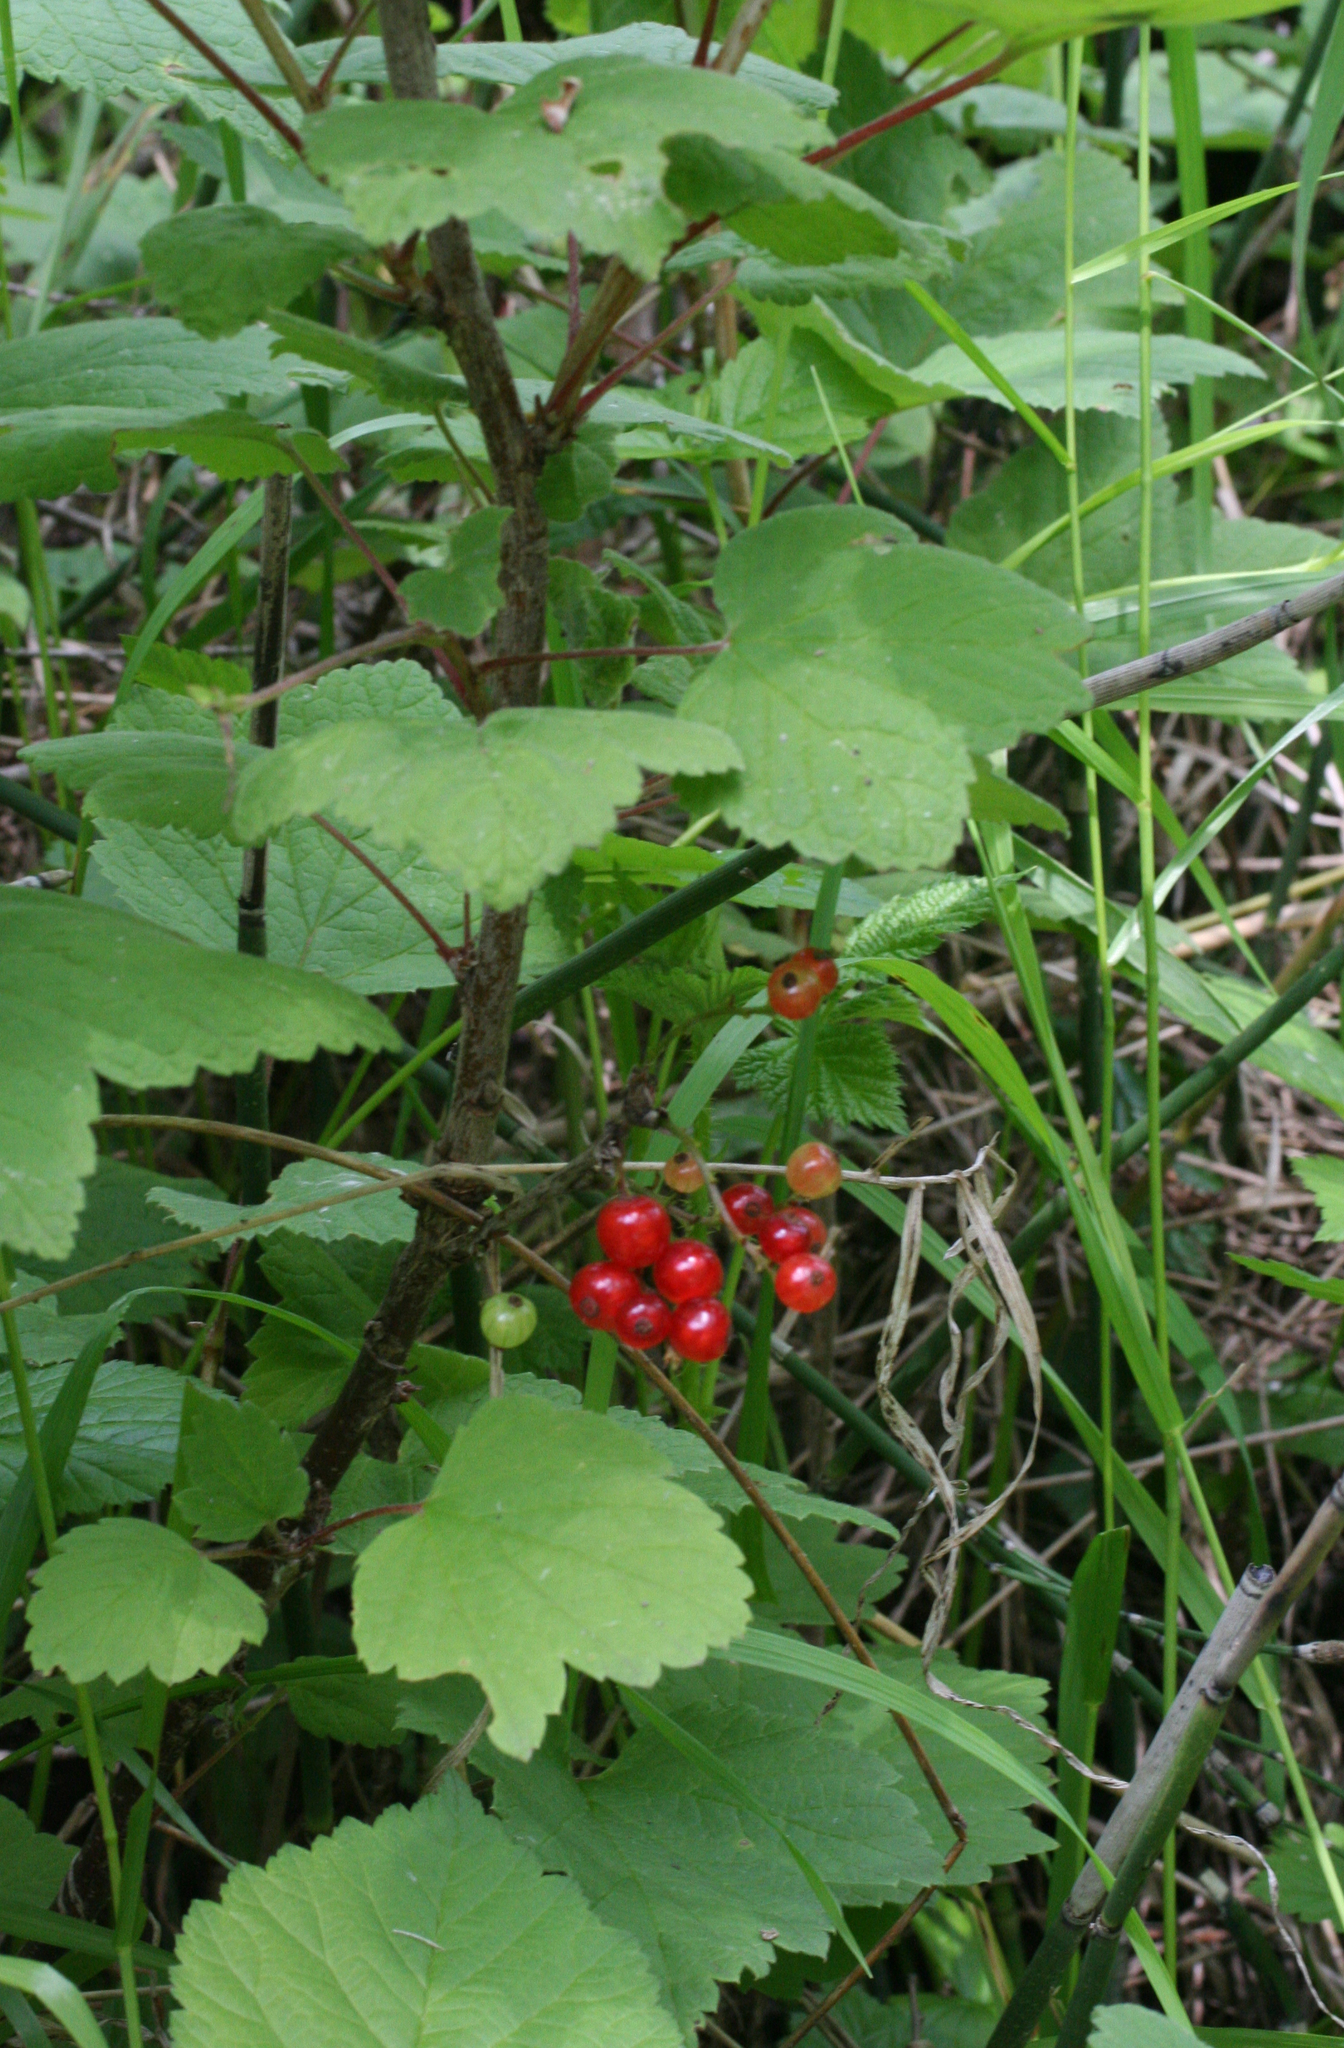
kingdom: Plantae
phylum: Tracheophyta
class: Magnoliopsida
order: Saxifragales
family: Grossulariaceae
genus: Ribes
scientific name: Ribes spicatum
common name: Downy currant
